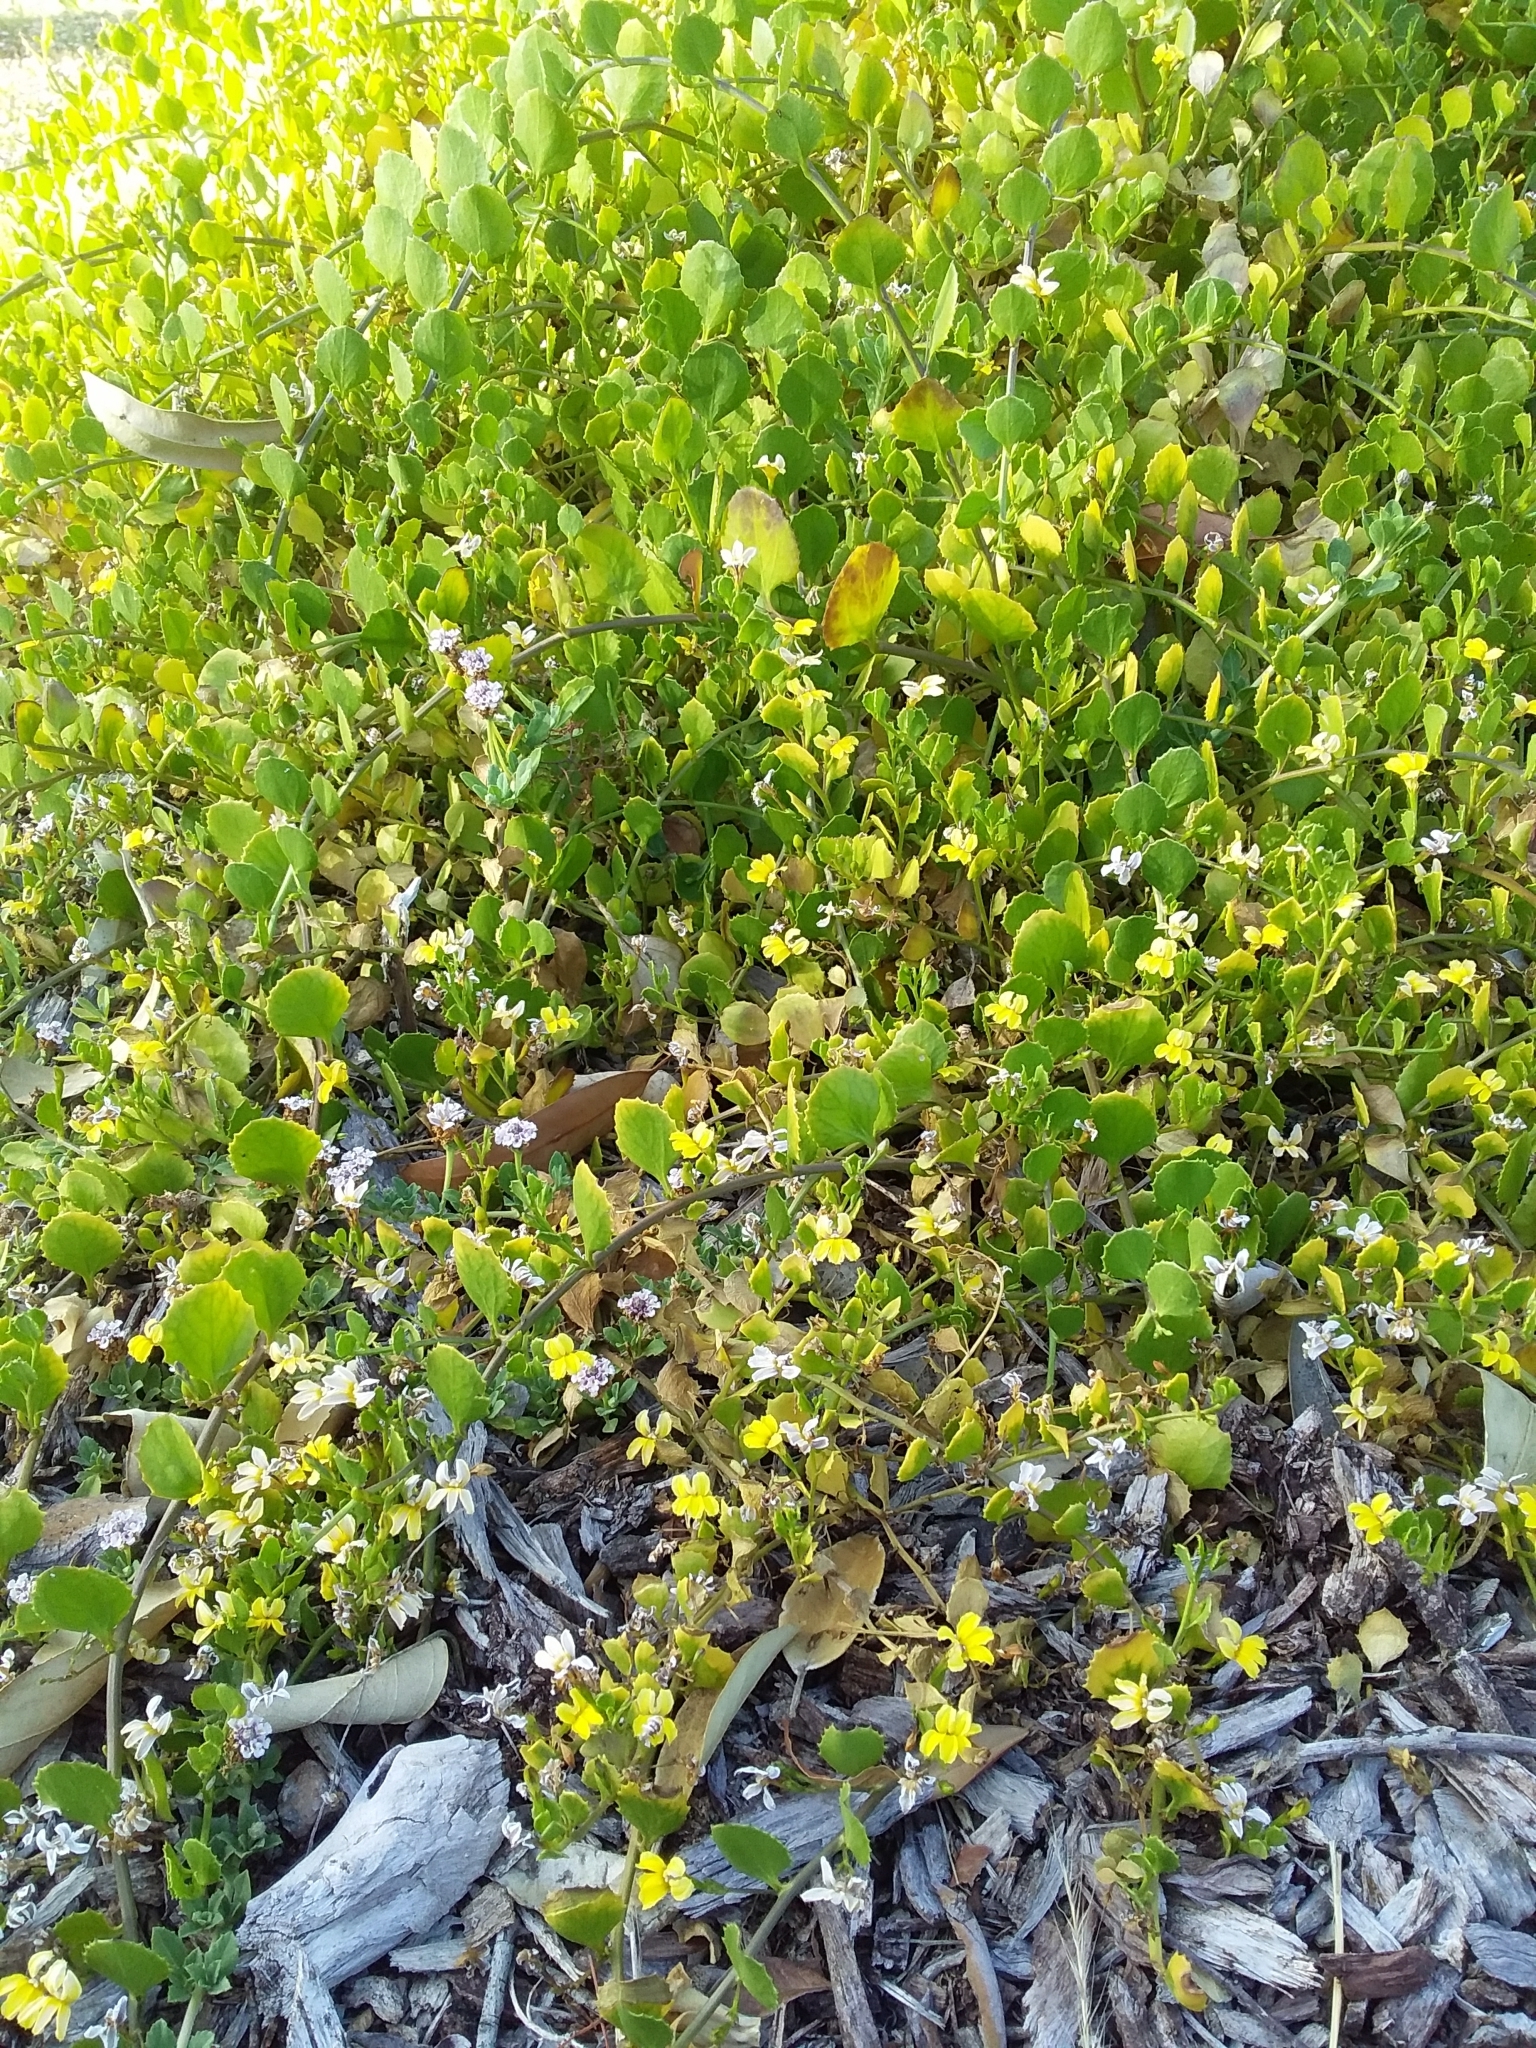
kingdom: Plantae
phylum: Tracheophyta
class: Magnoliopsida
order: Asterales
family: Goodeniaceae
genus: Goodenia
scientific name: Goodenia varia
